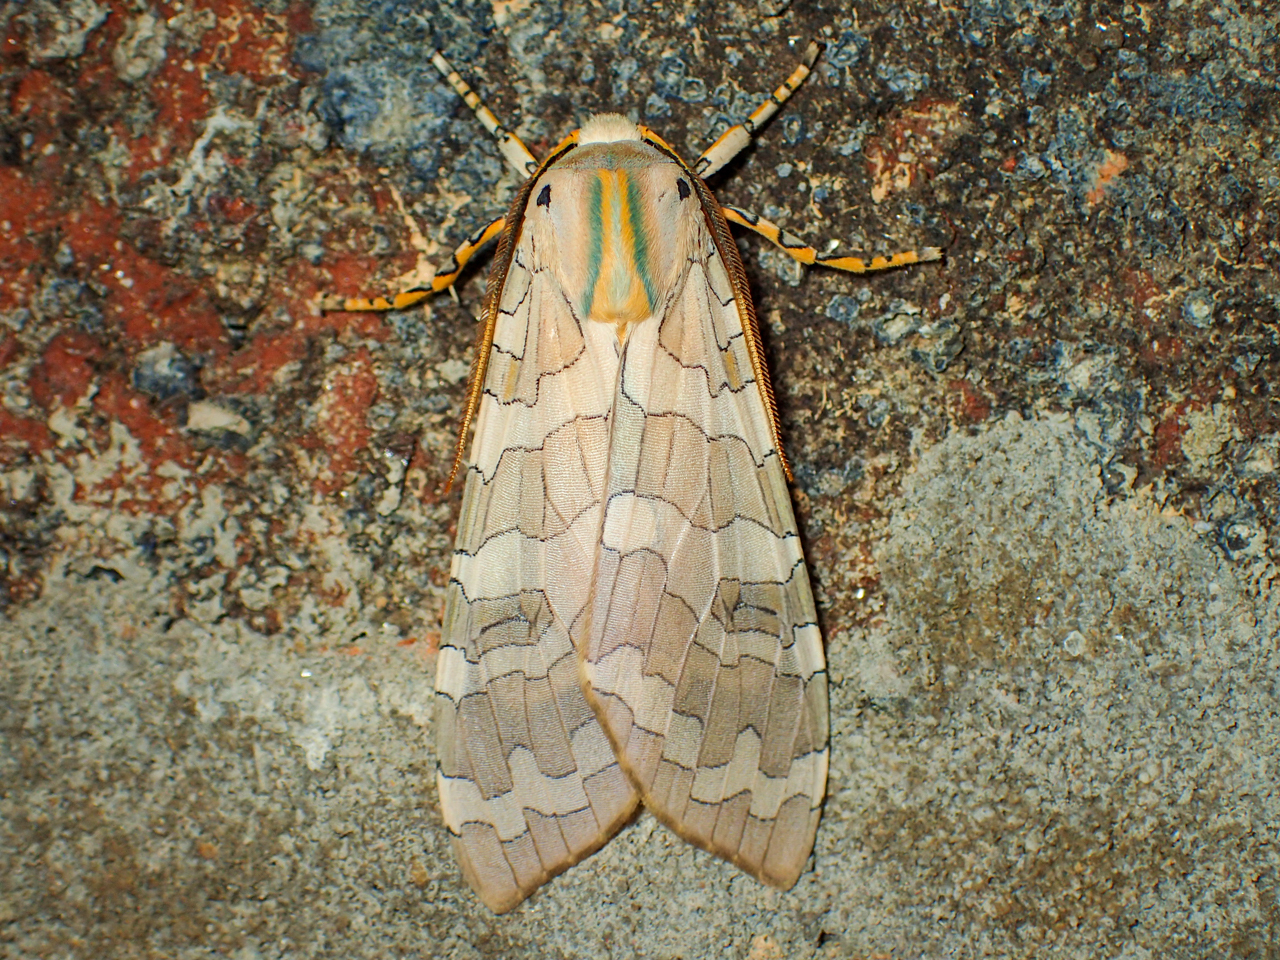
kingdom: Animalia
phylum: Arthropoda
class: Insecta
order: Lepidoptera
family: Erebidae
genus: Halysidota
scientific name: Halysidota
